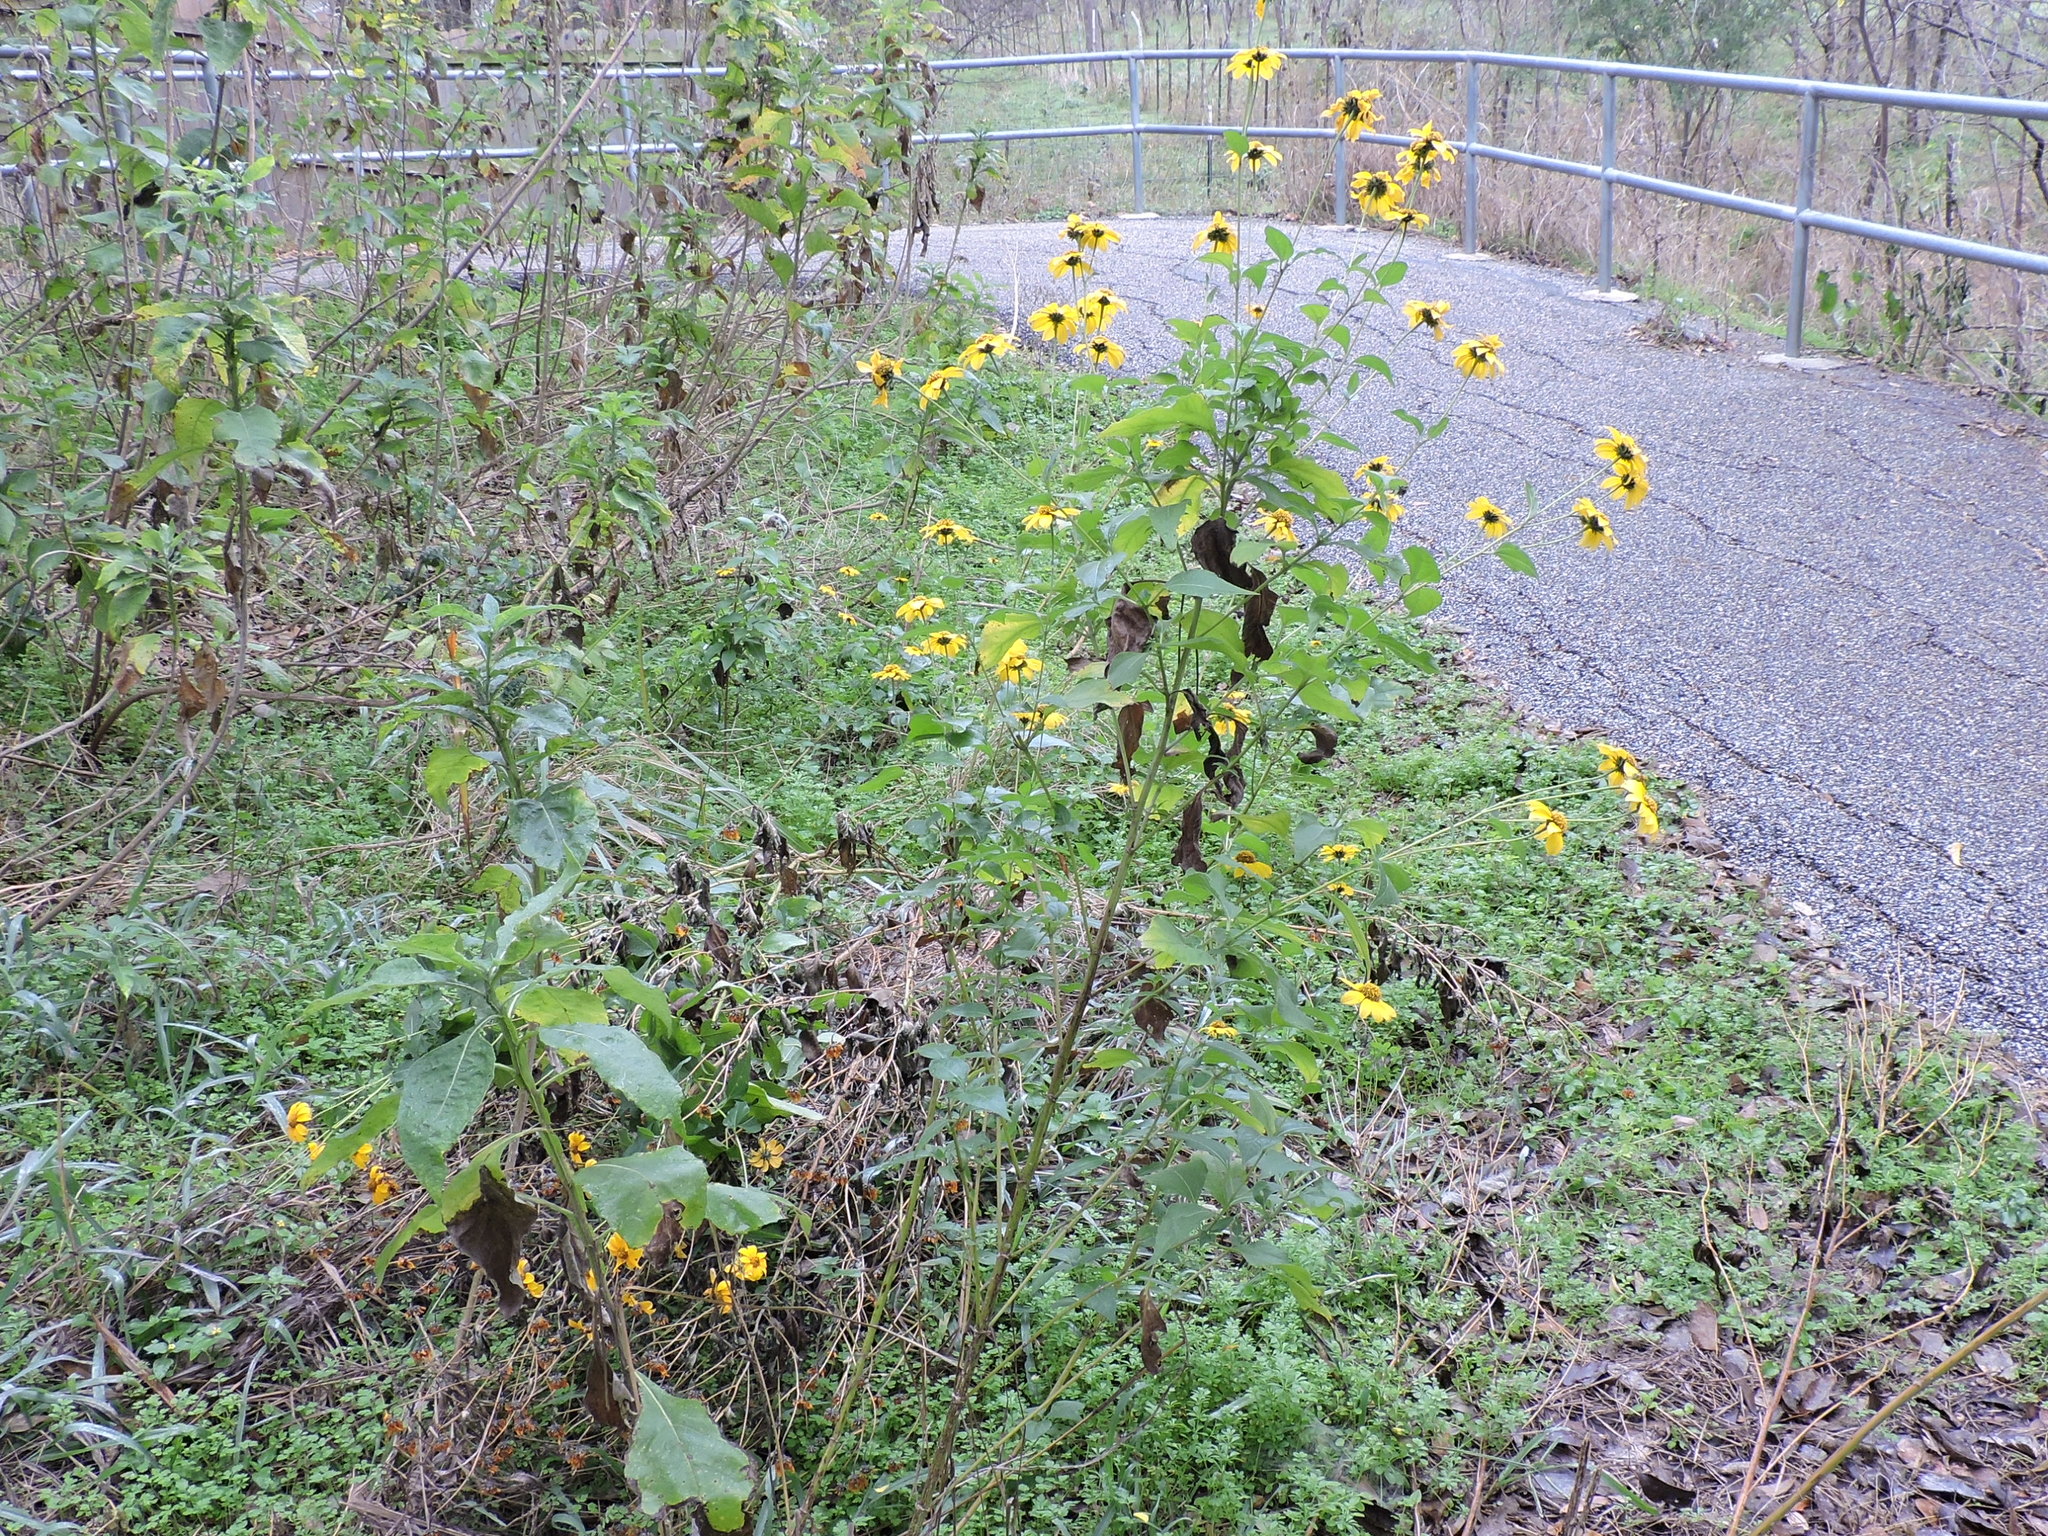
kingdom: Plantae
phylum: Tracheophyta
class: Magnoliopsida
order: Asterales
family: Asteraceae
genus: Viguiera
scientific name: Viguiera dentata
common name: Toothleaf
